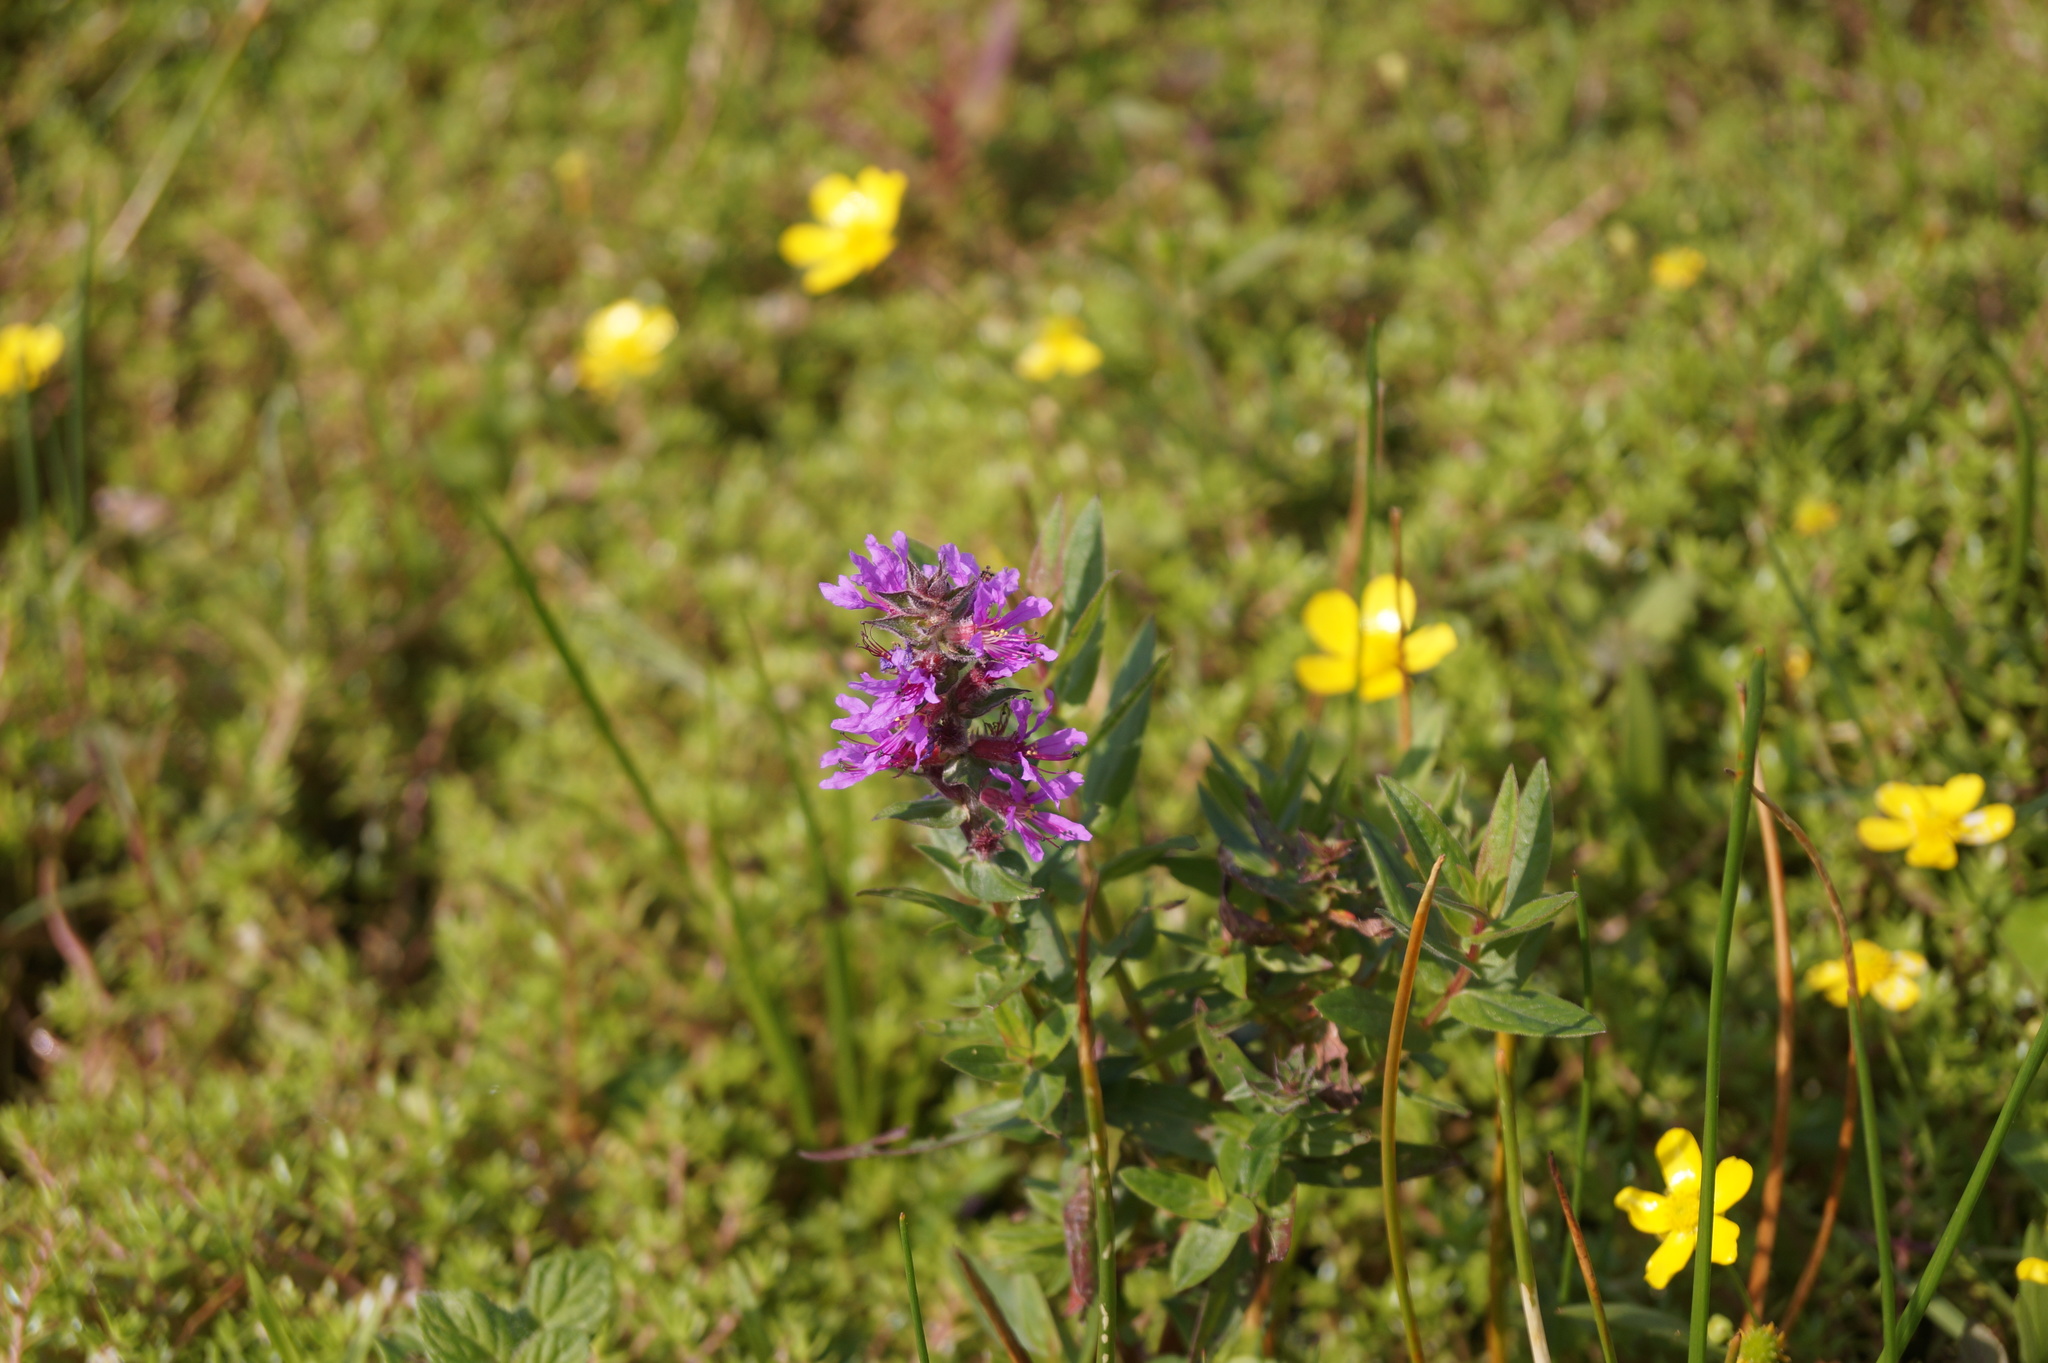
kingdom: Plantae
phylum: Tracheophyta
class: Magnoliopsida
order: Myrtales
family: Lythraceae
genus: Lythrum
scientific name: Lythrum salicaria
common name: Purple loosestrife
